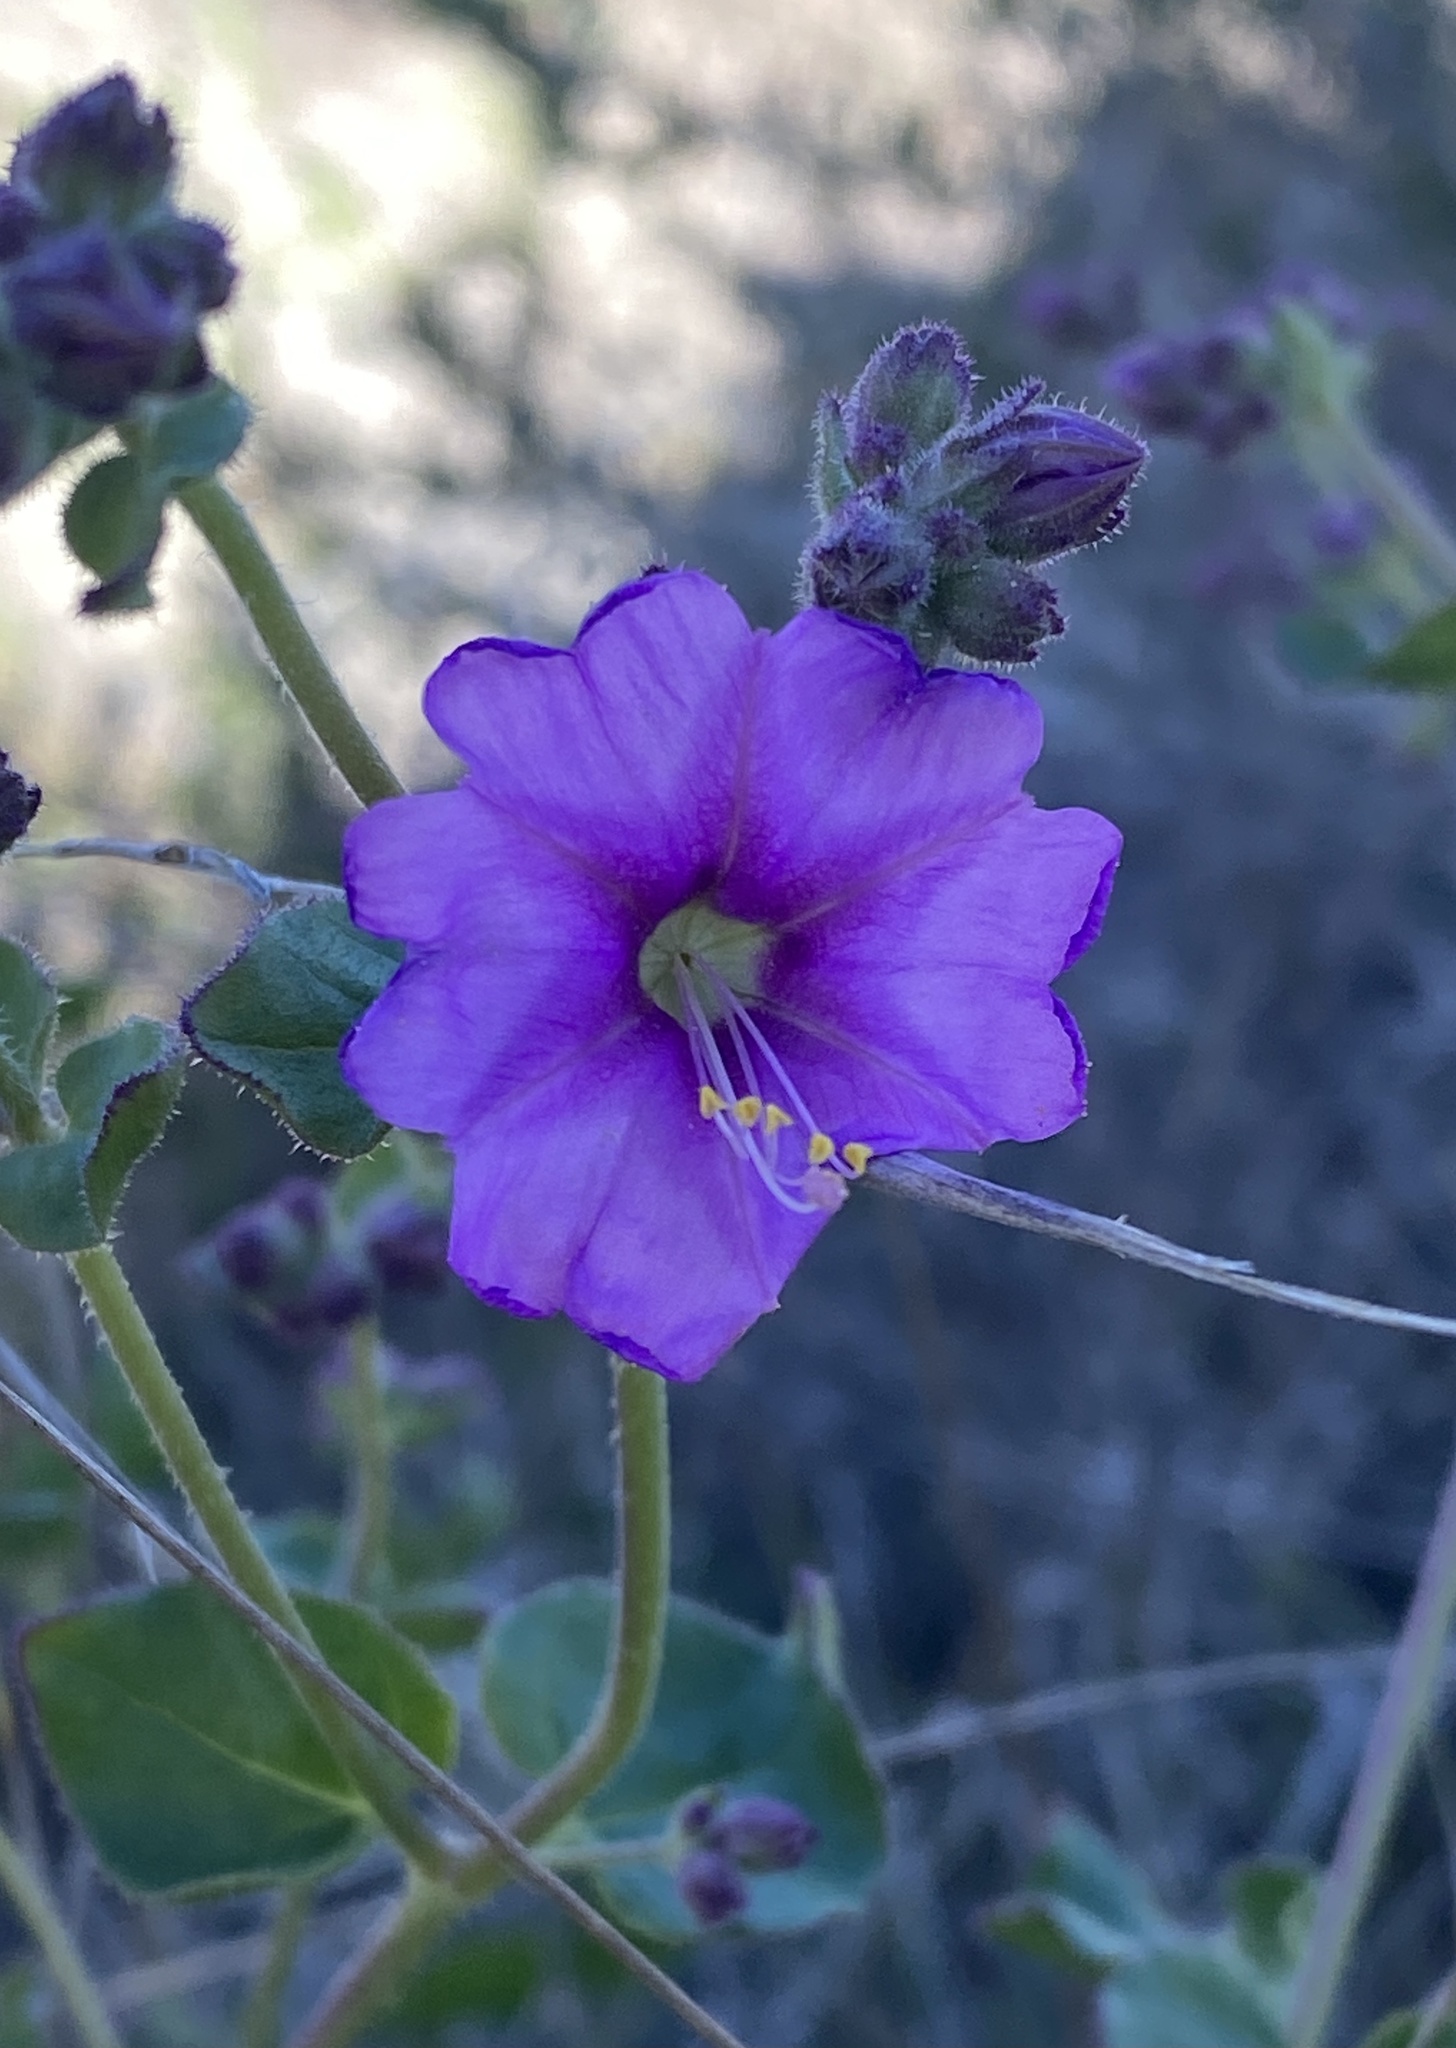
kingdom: Plantae
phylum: Tracheophyta
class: Magnoliopsida
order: Caryophyllales
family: Nyctaginaceae
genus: Mirabilis
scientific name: Mirabilis laevis
